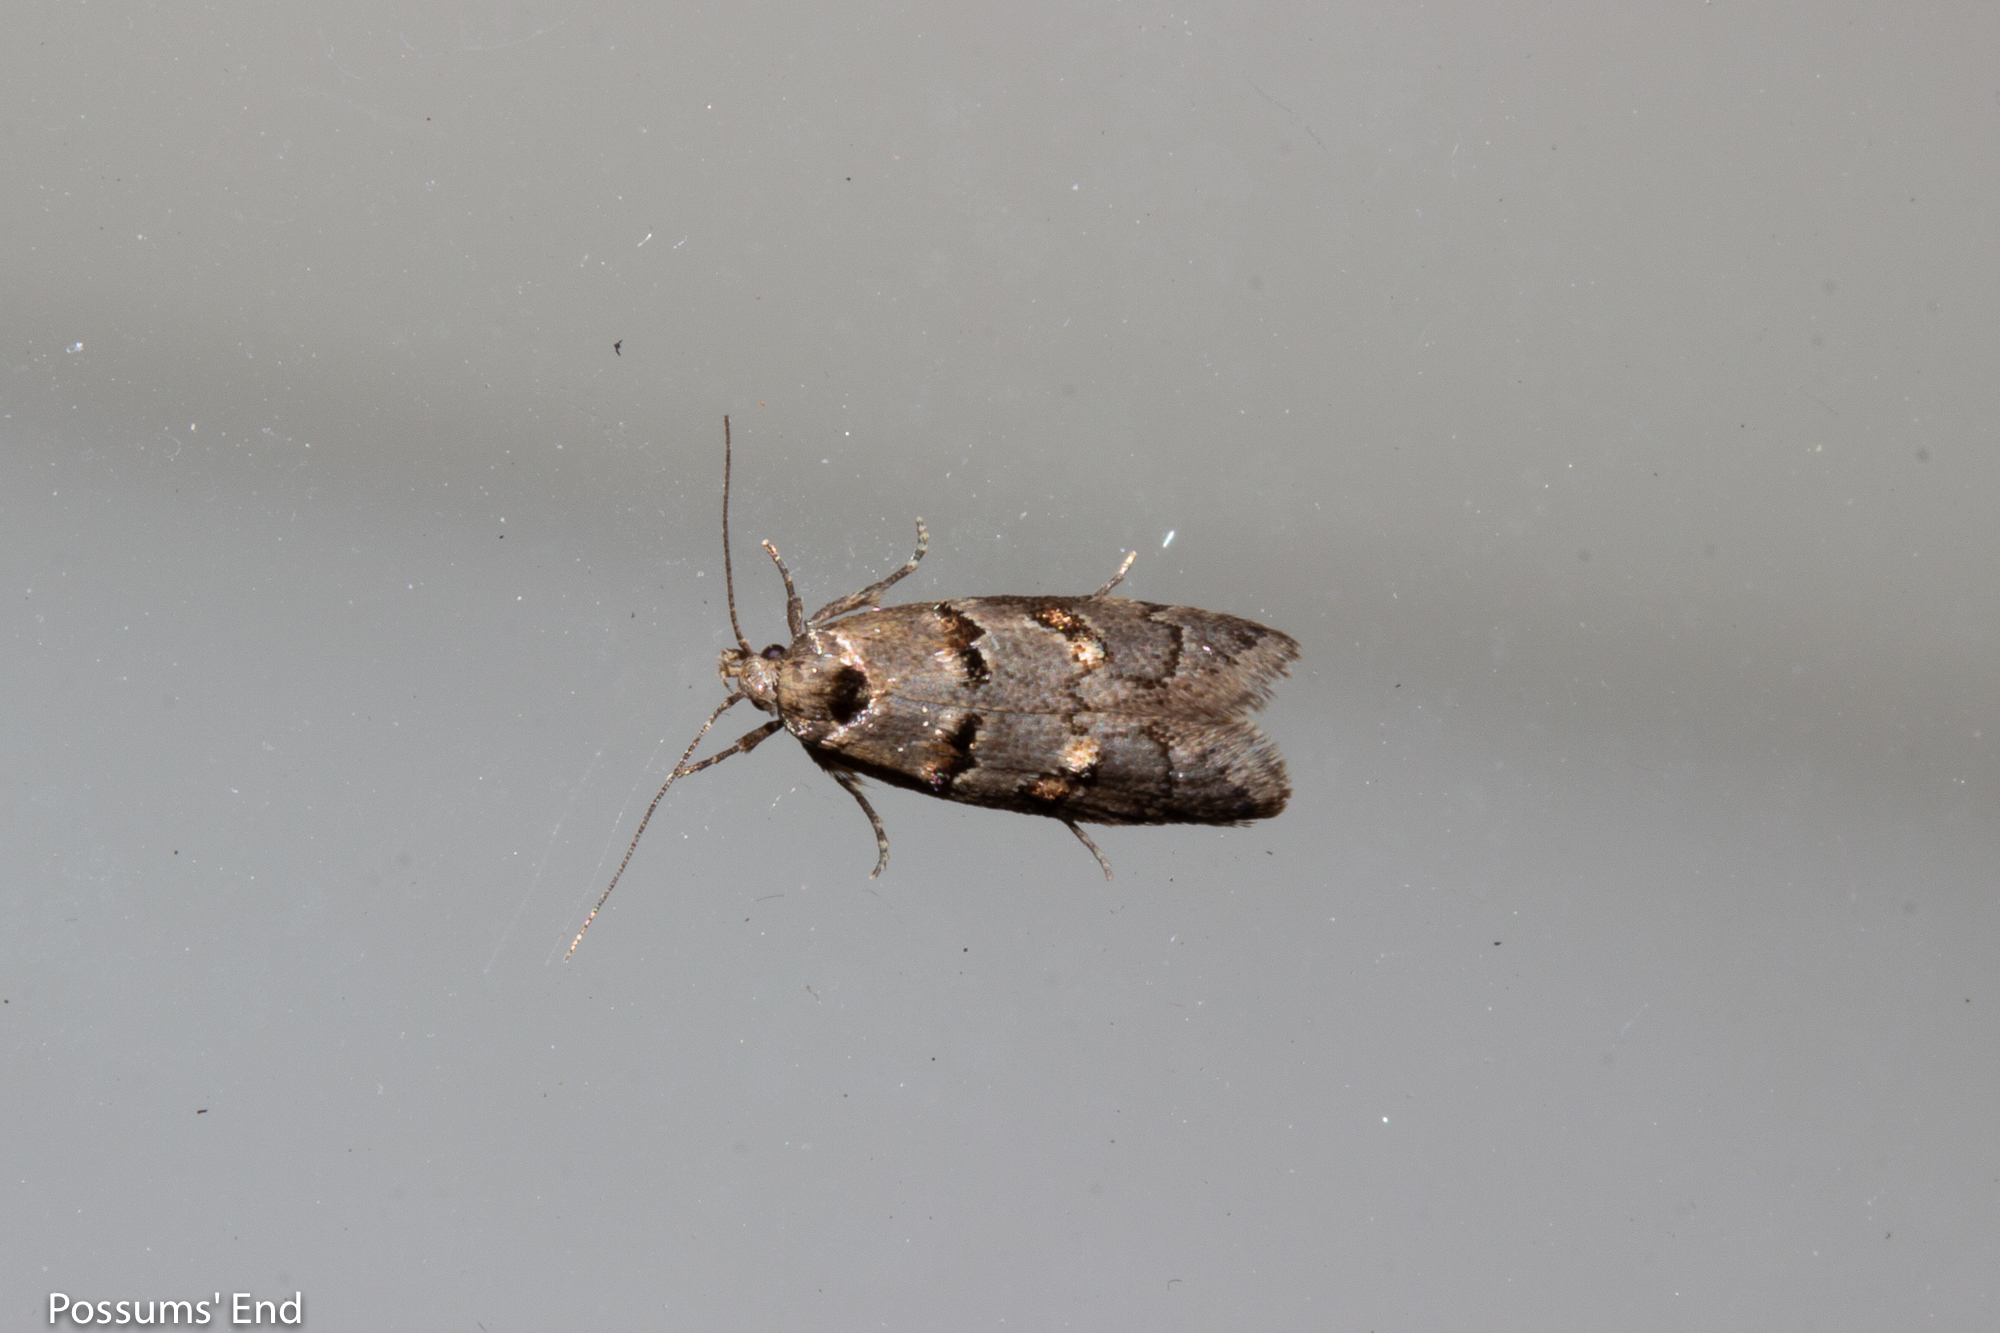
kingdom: Animalia
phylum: Arthropoda
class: Insecta
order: Lepidoptera
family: Oecophoridae
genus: Trachypepla
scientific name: Trachypepla contritella
